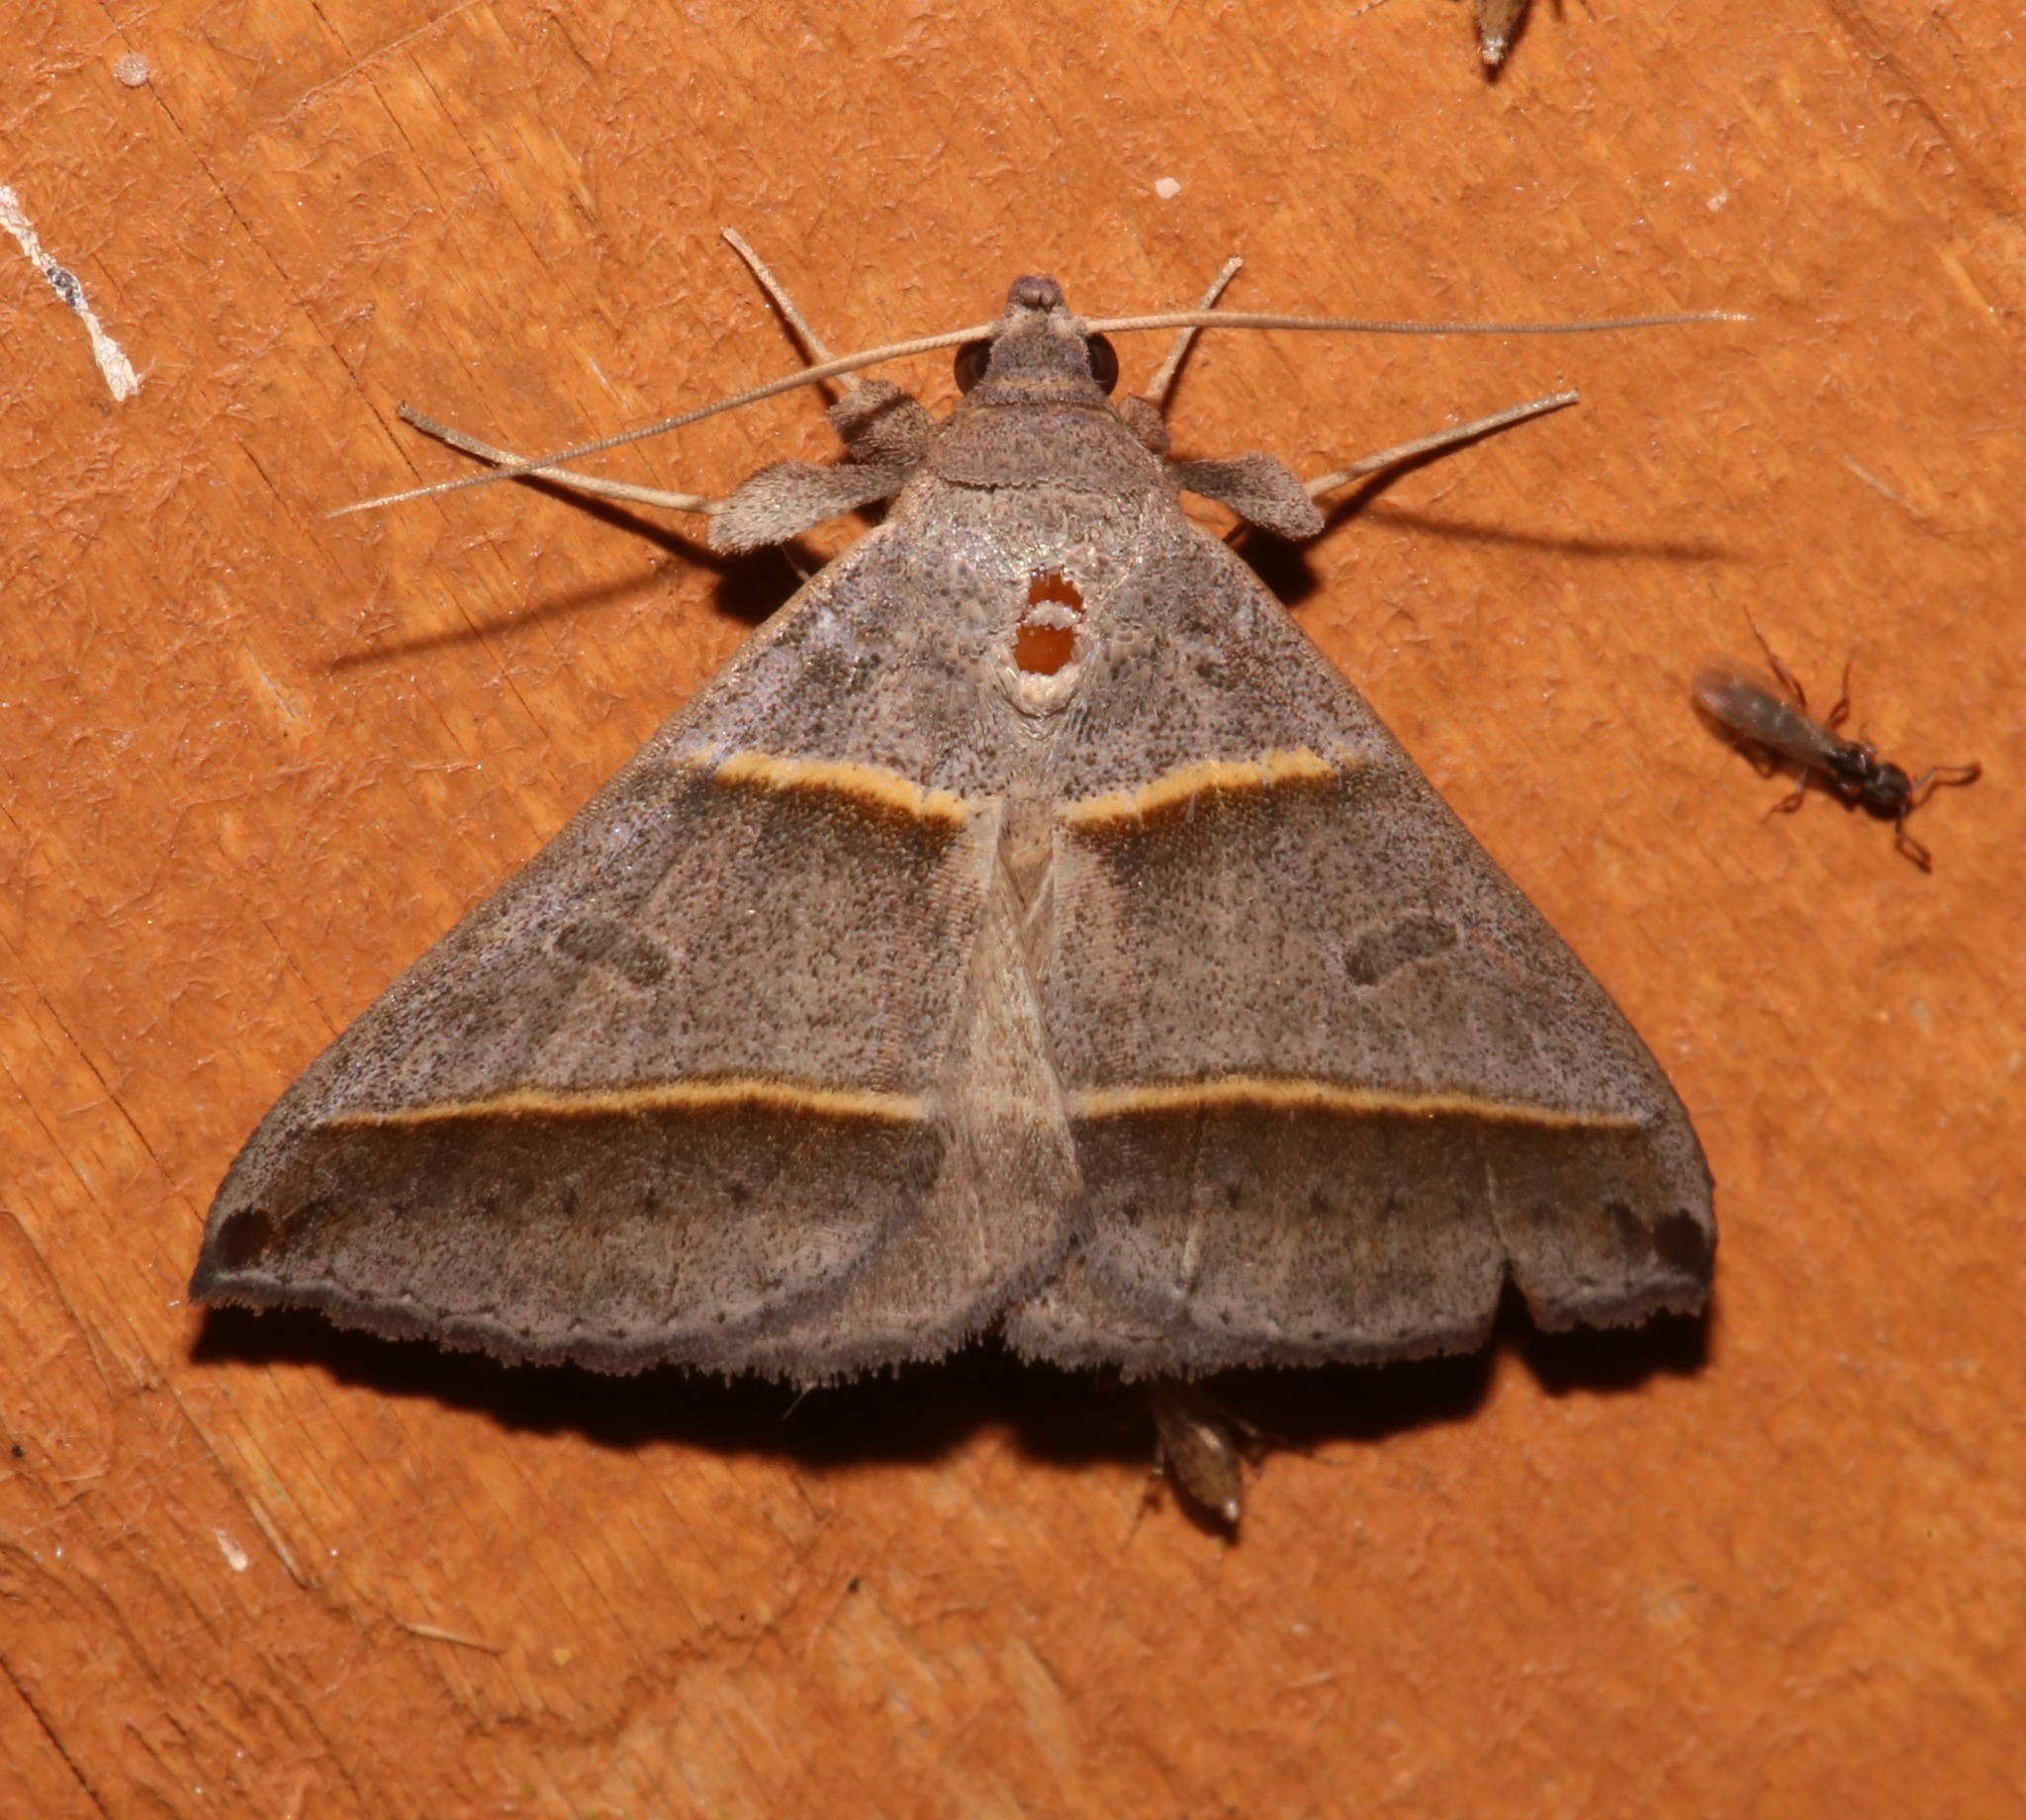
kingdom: Animalia
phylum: Arthropoda
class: Insecta
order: Lepidoptera
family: Erebidae
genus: Ptichodis
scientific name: Ptichodis vinculum
